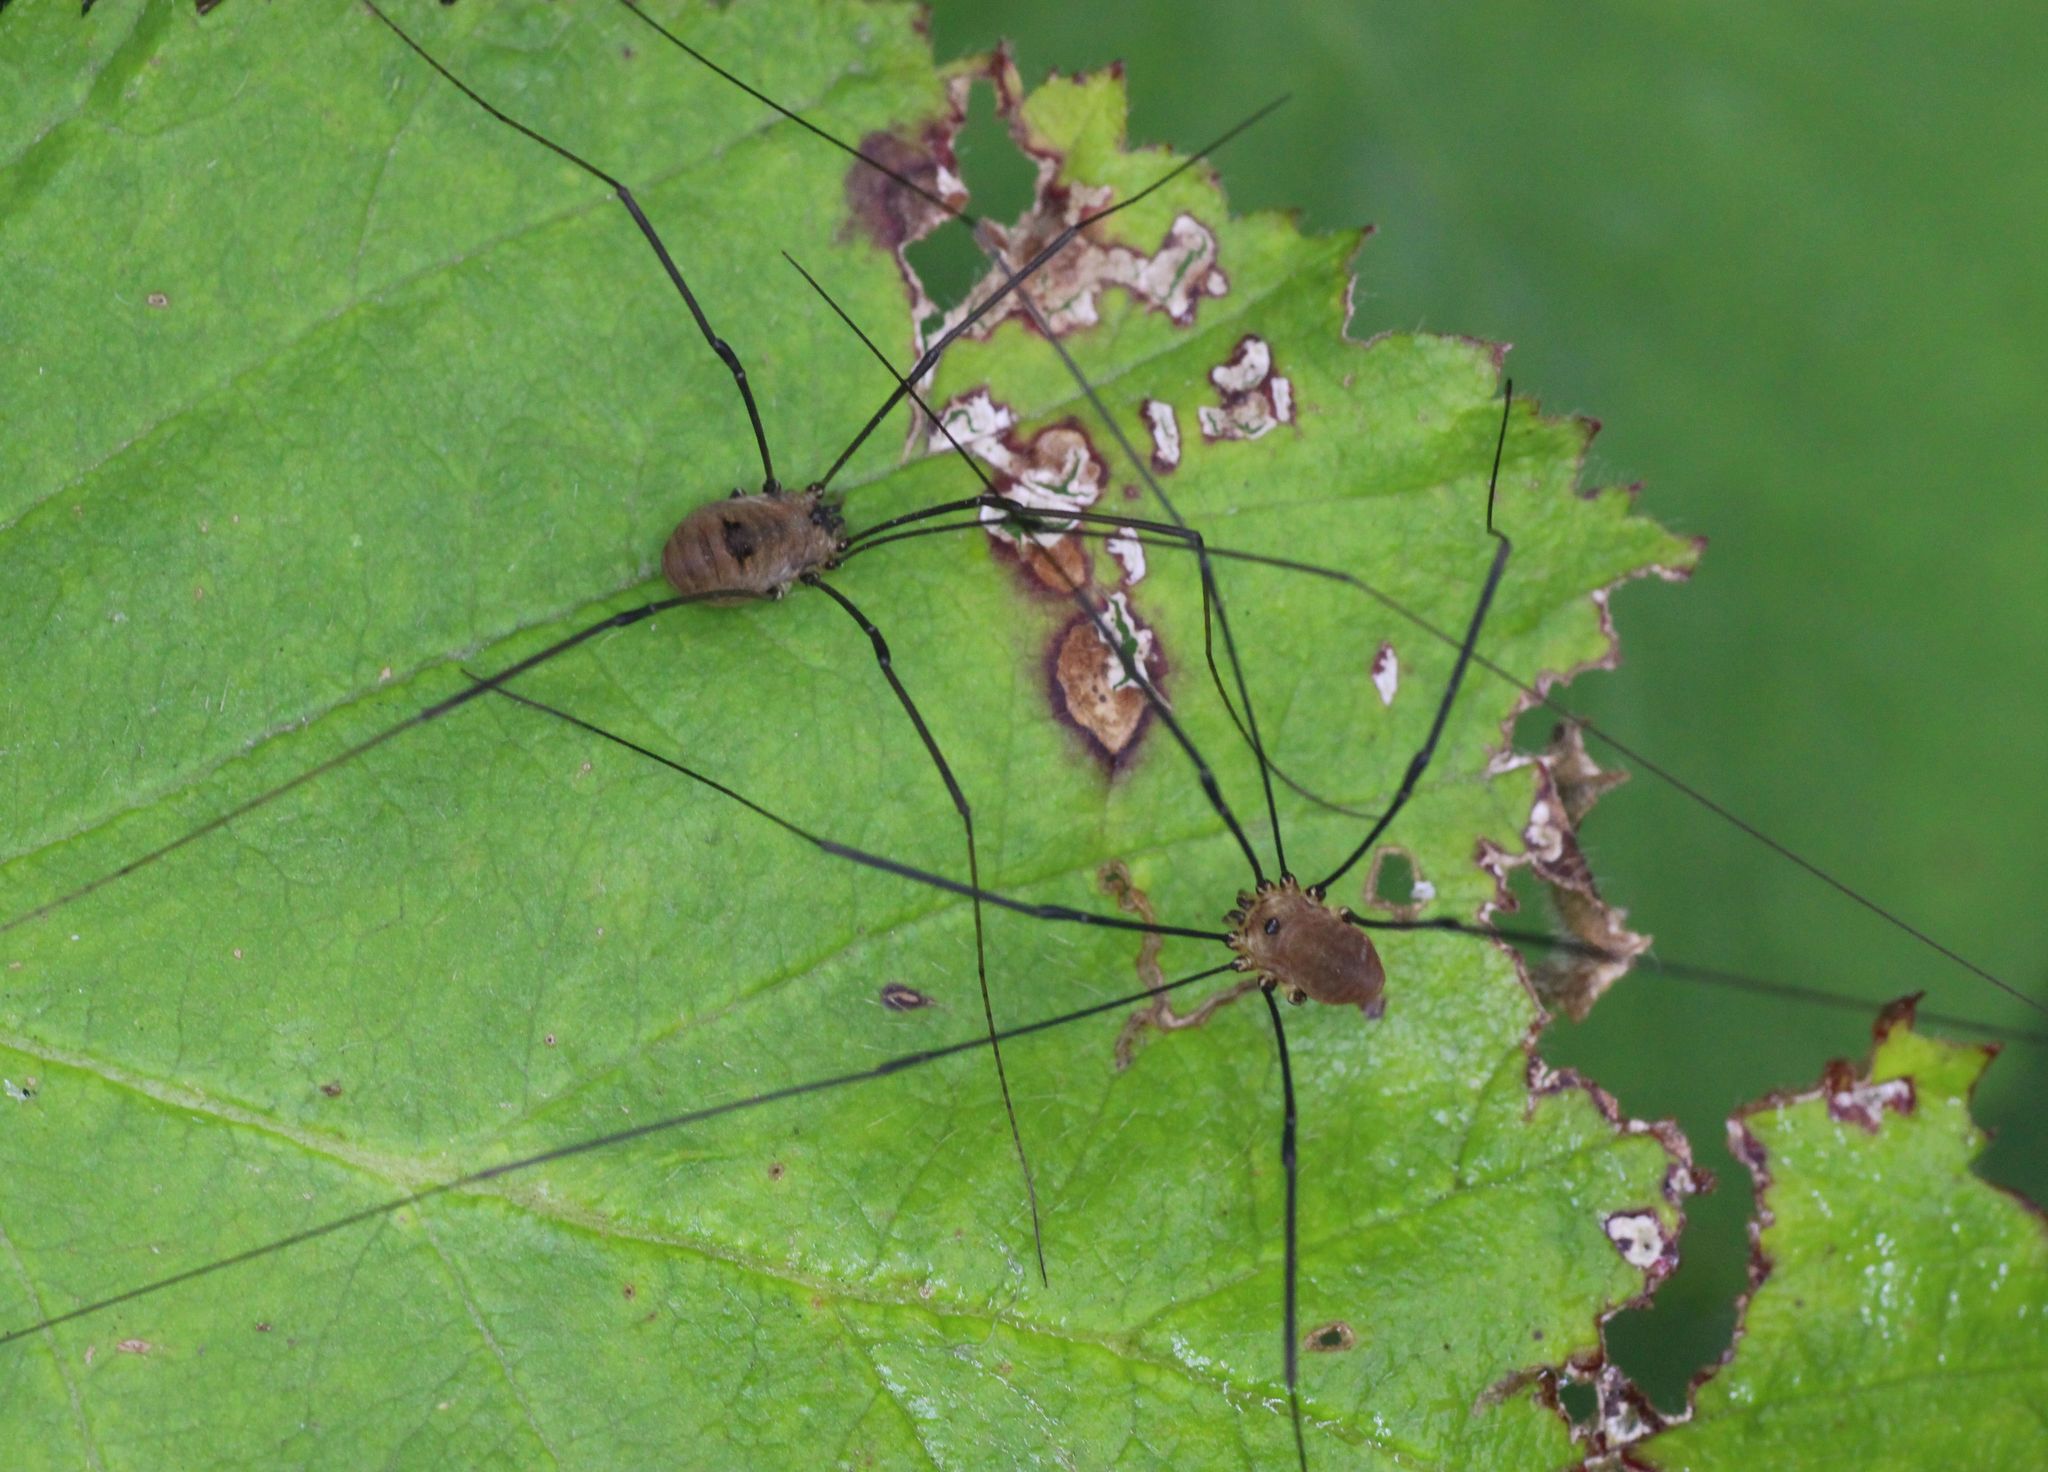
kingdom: Animalia
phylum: Arthropoda
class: Arachnida
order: Opiliones
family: Sclerosomatidae
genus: Leiobunum
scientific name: Leiobunum rotundum
